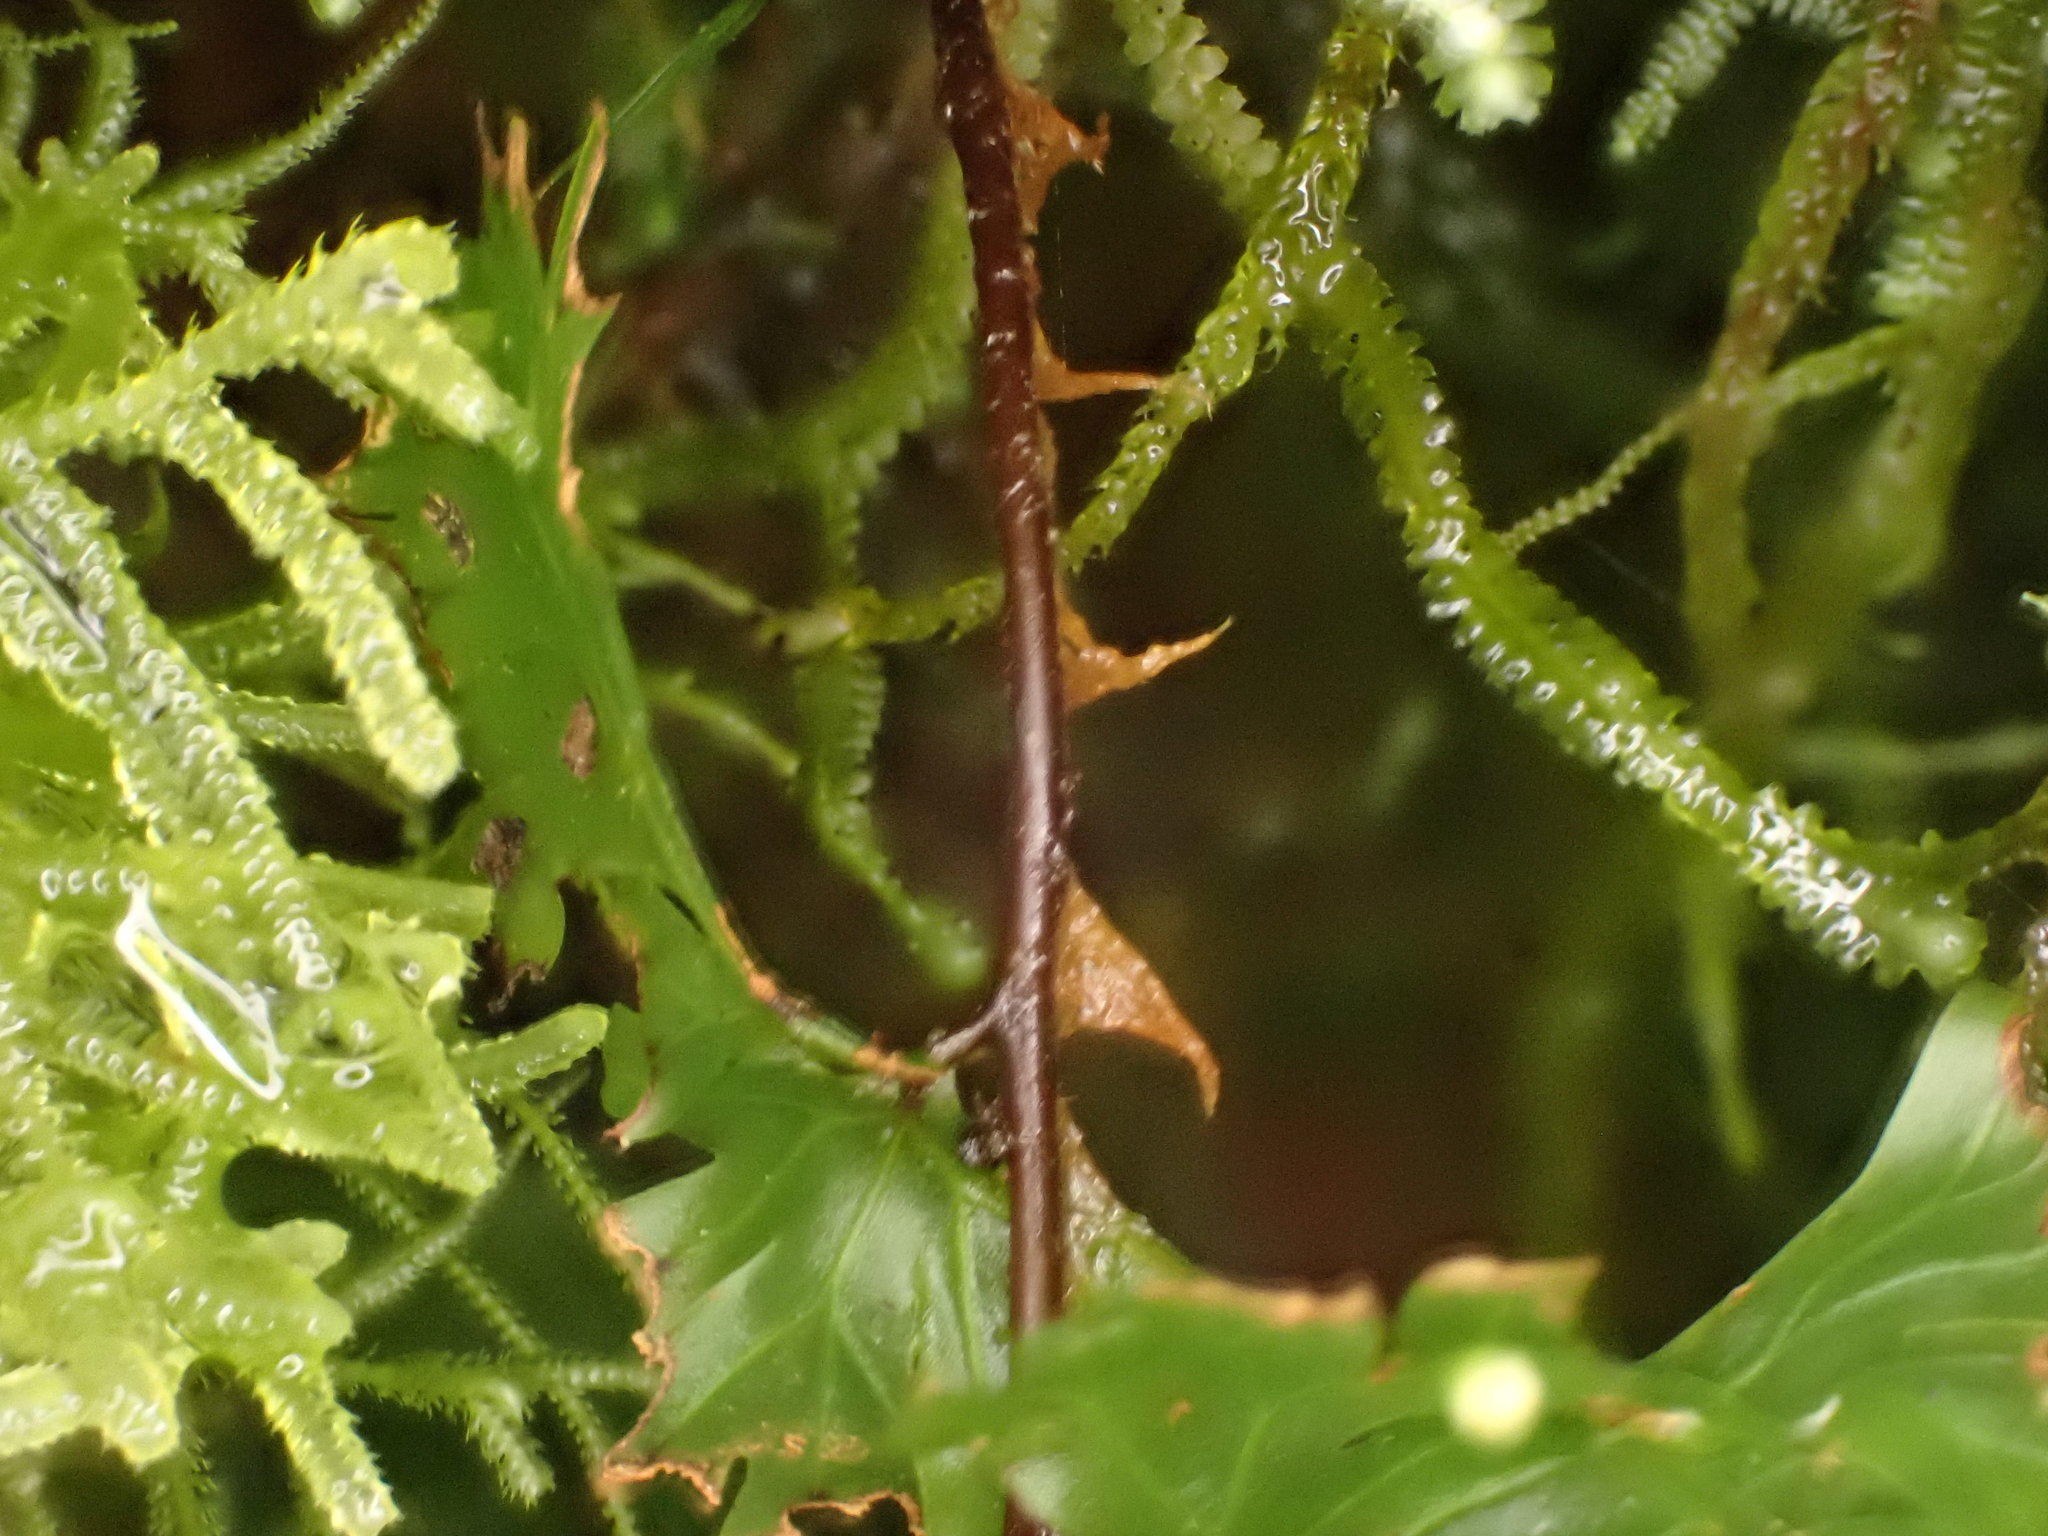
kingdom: Plantae
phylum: Tracheophyta
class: Polypodiopsida
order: Hymenophyllales
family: Hymenophyllaceae
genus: Hymenophyllum
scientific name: Hymenophyllum flabellatum
